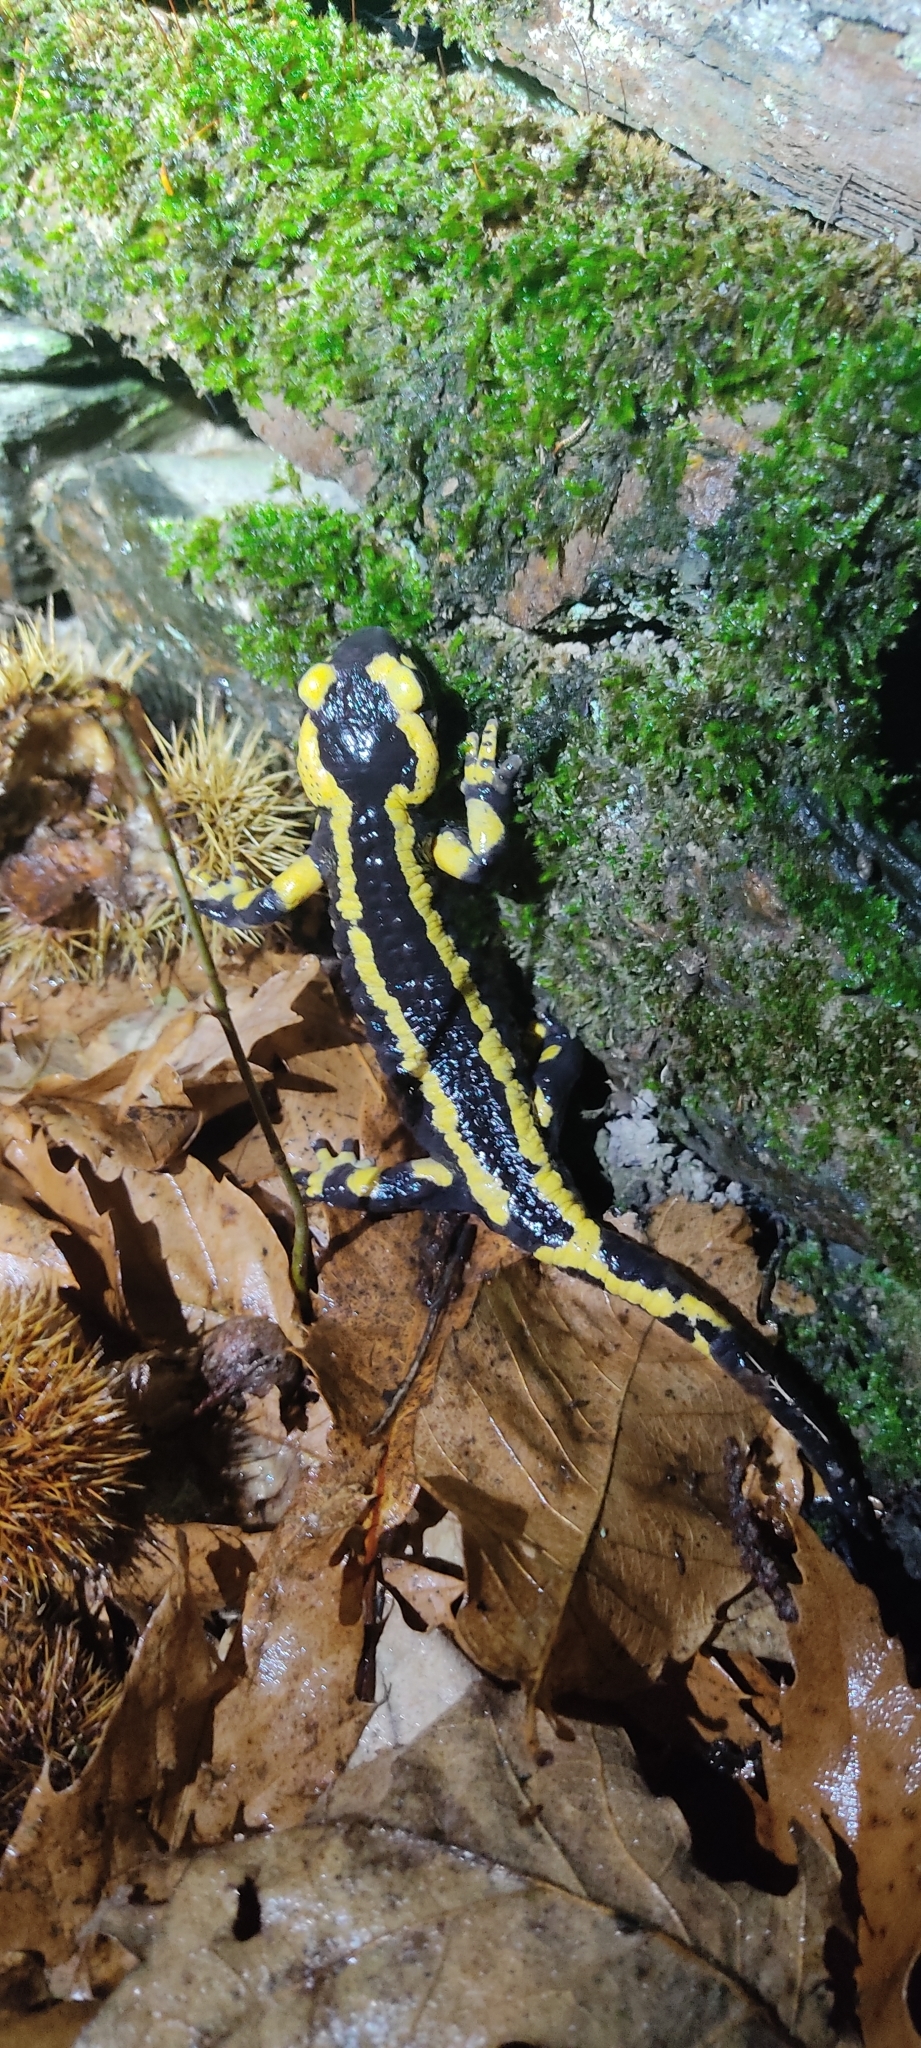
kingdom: Animalia
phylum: Chordata
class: Amphibia
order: Caudata
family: Salamandridae
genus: Salamandra
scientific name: Salamandra salamandra
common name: Fire salamander
